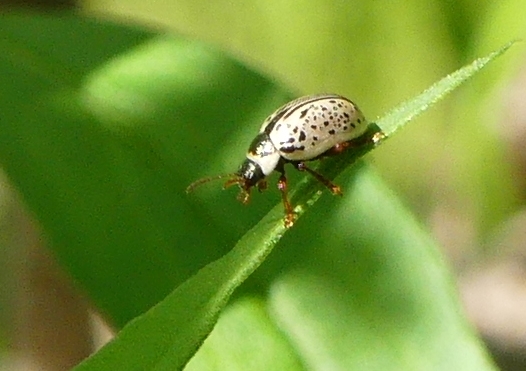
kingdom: Animalia
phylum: Arthropoda
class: Insecta
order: Coleoptera
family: Chrysomelidae
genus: Calligrapha
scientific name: Calligrapha multipunctata
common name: Common willow calligrapher beetle
